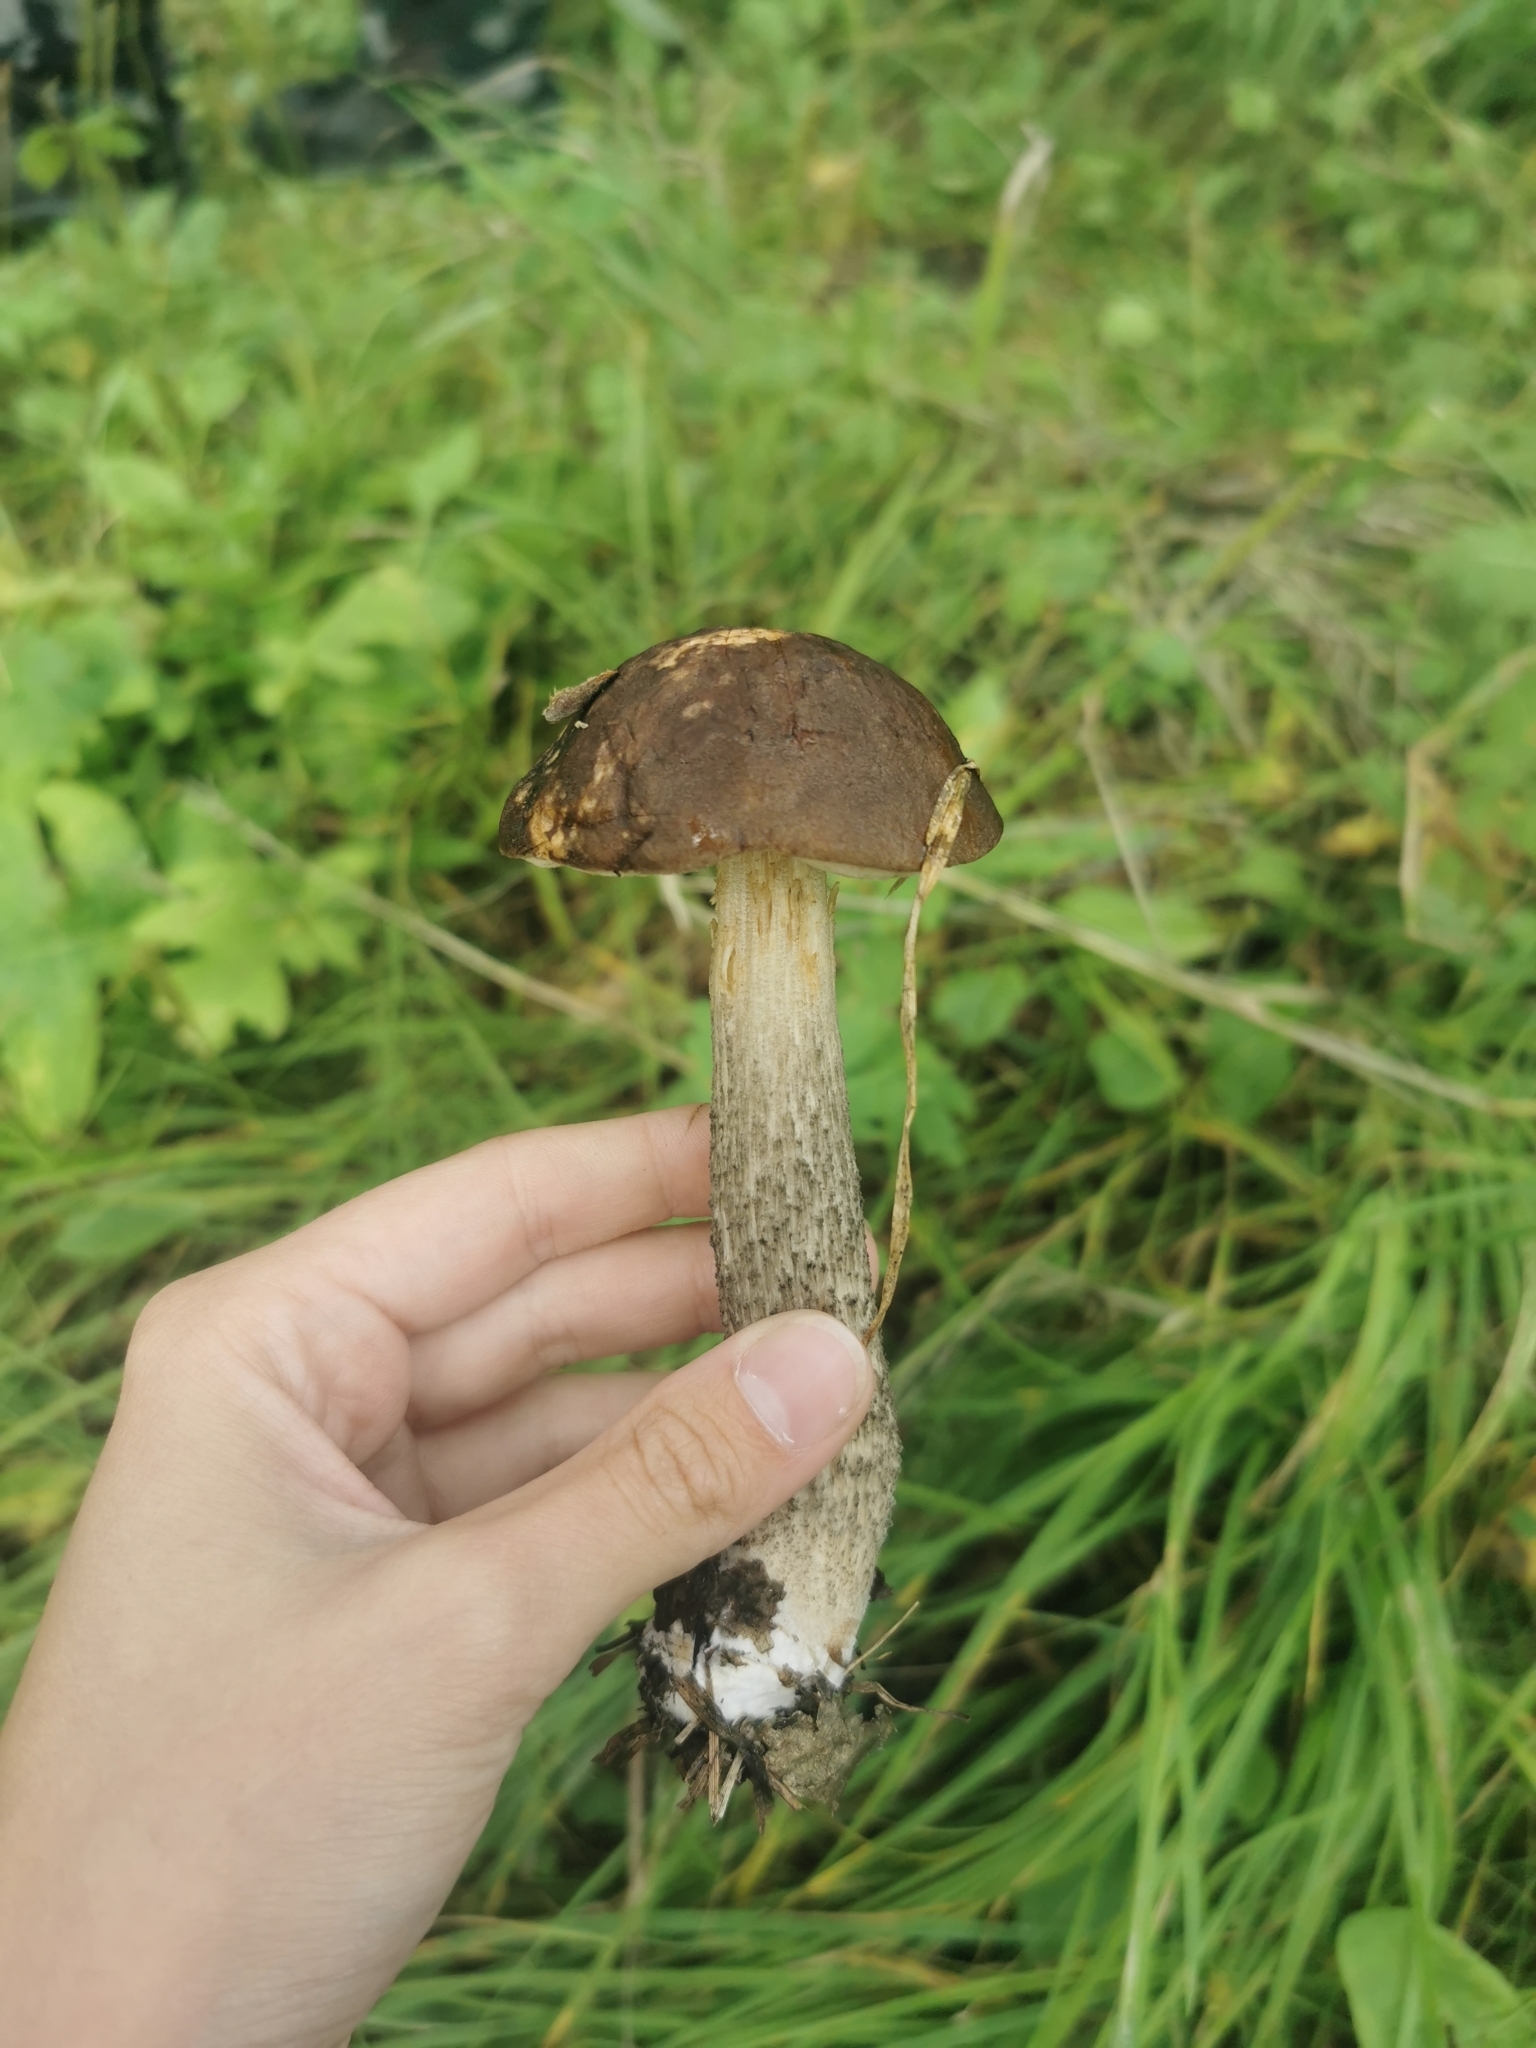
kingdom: Fungi
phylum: Basidiomycota
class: Agaricomycetes
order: Boletales
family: Boletaceae
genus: Leccinum
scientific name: Leccinum scabrum
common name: Blushing bolete
